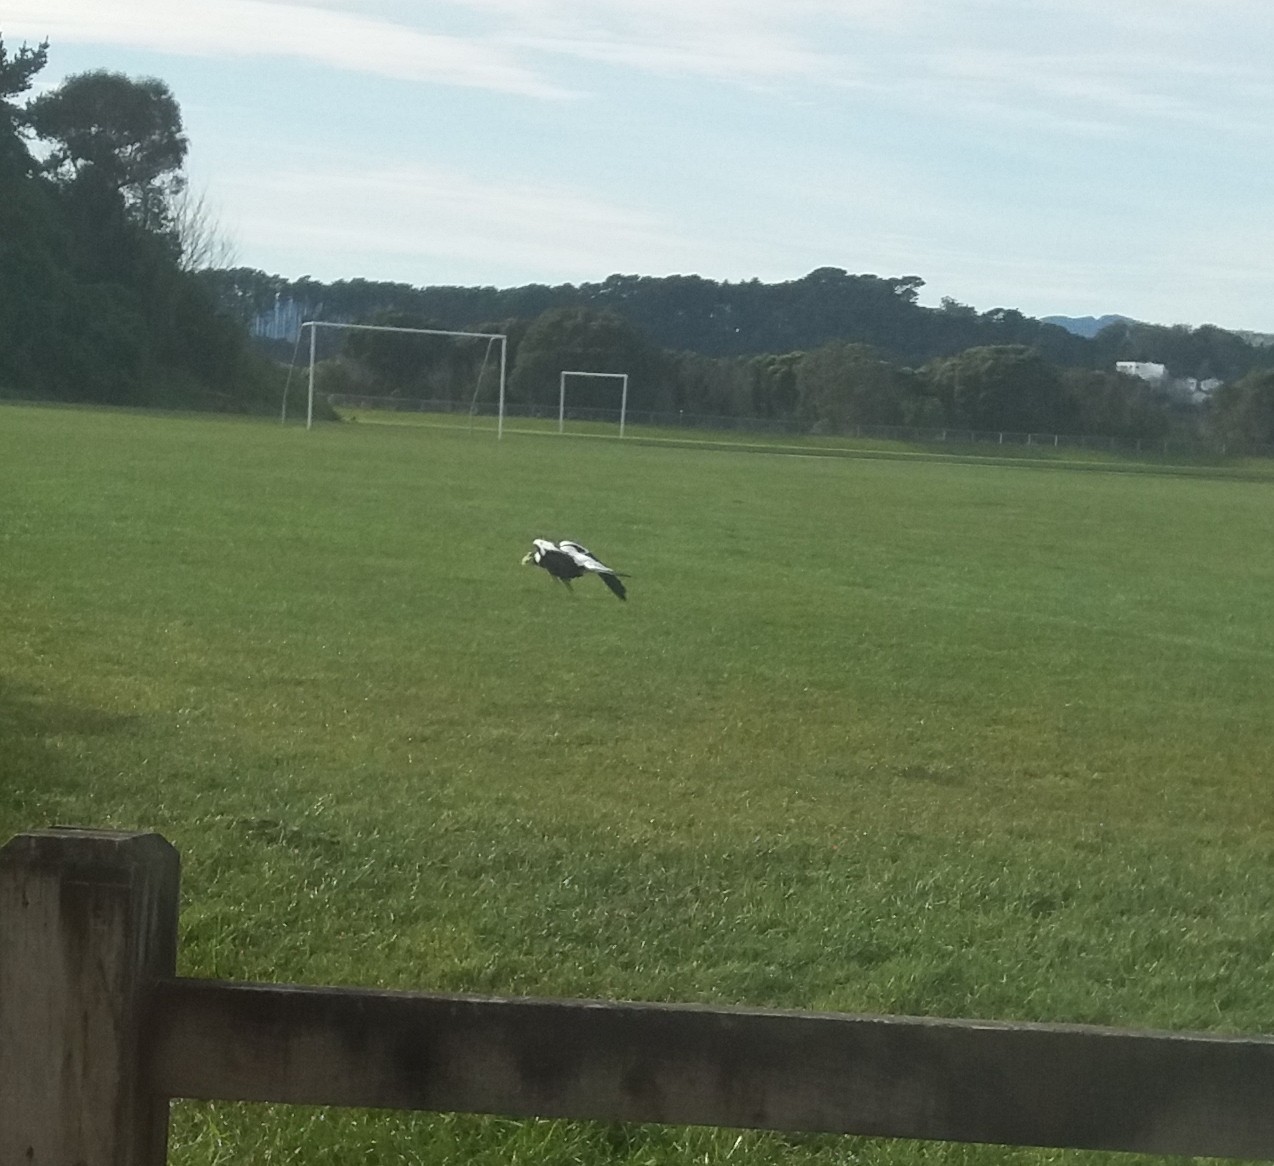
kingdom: Animalia
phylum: Chordata
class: Aves
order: Passeriformes
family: Cracticidae
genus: Gymnorhina
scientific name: Gymnorhina tibicen
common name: Australian magpie
